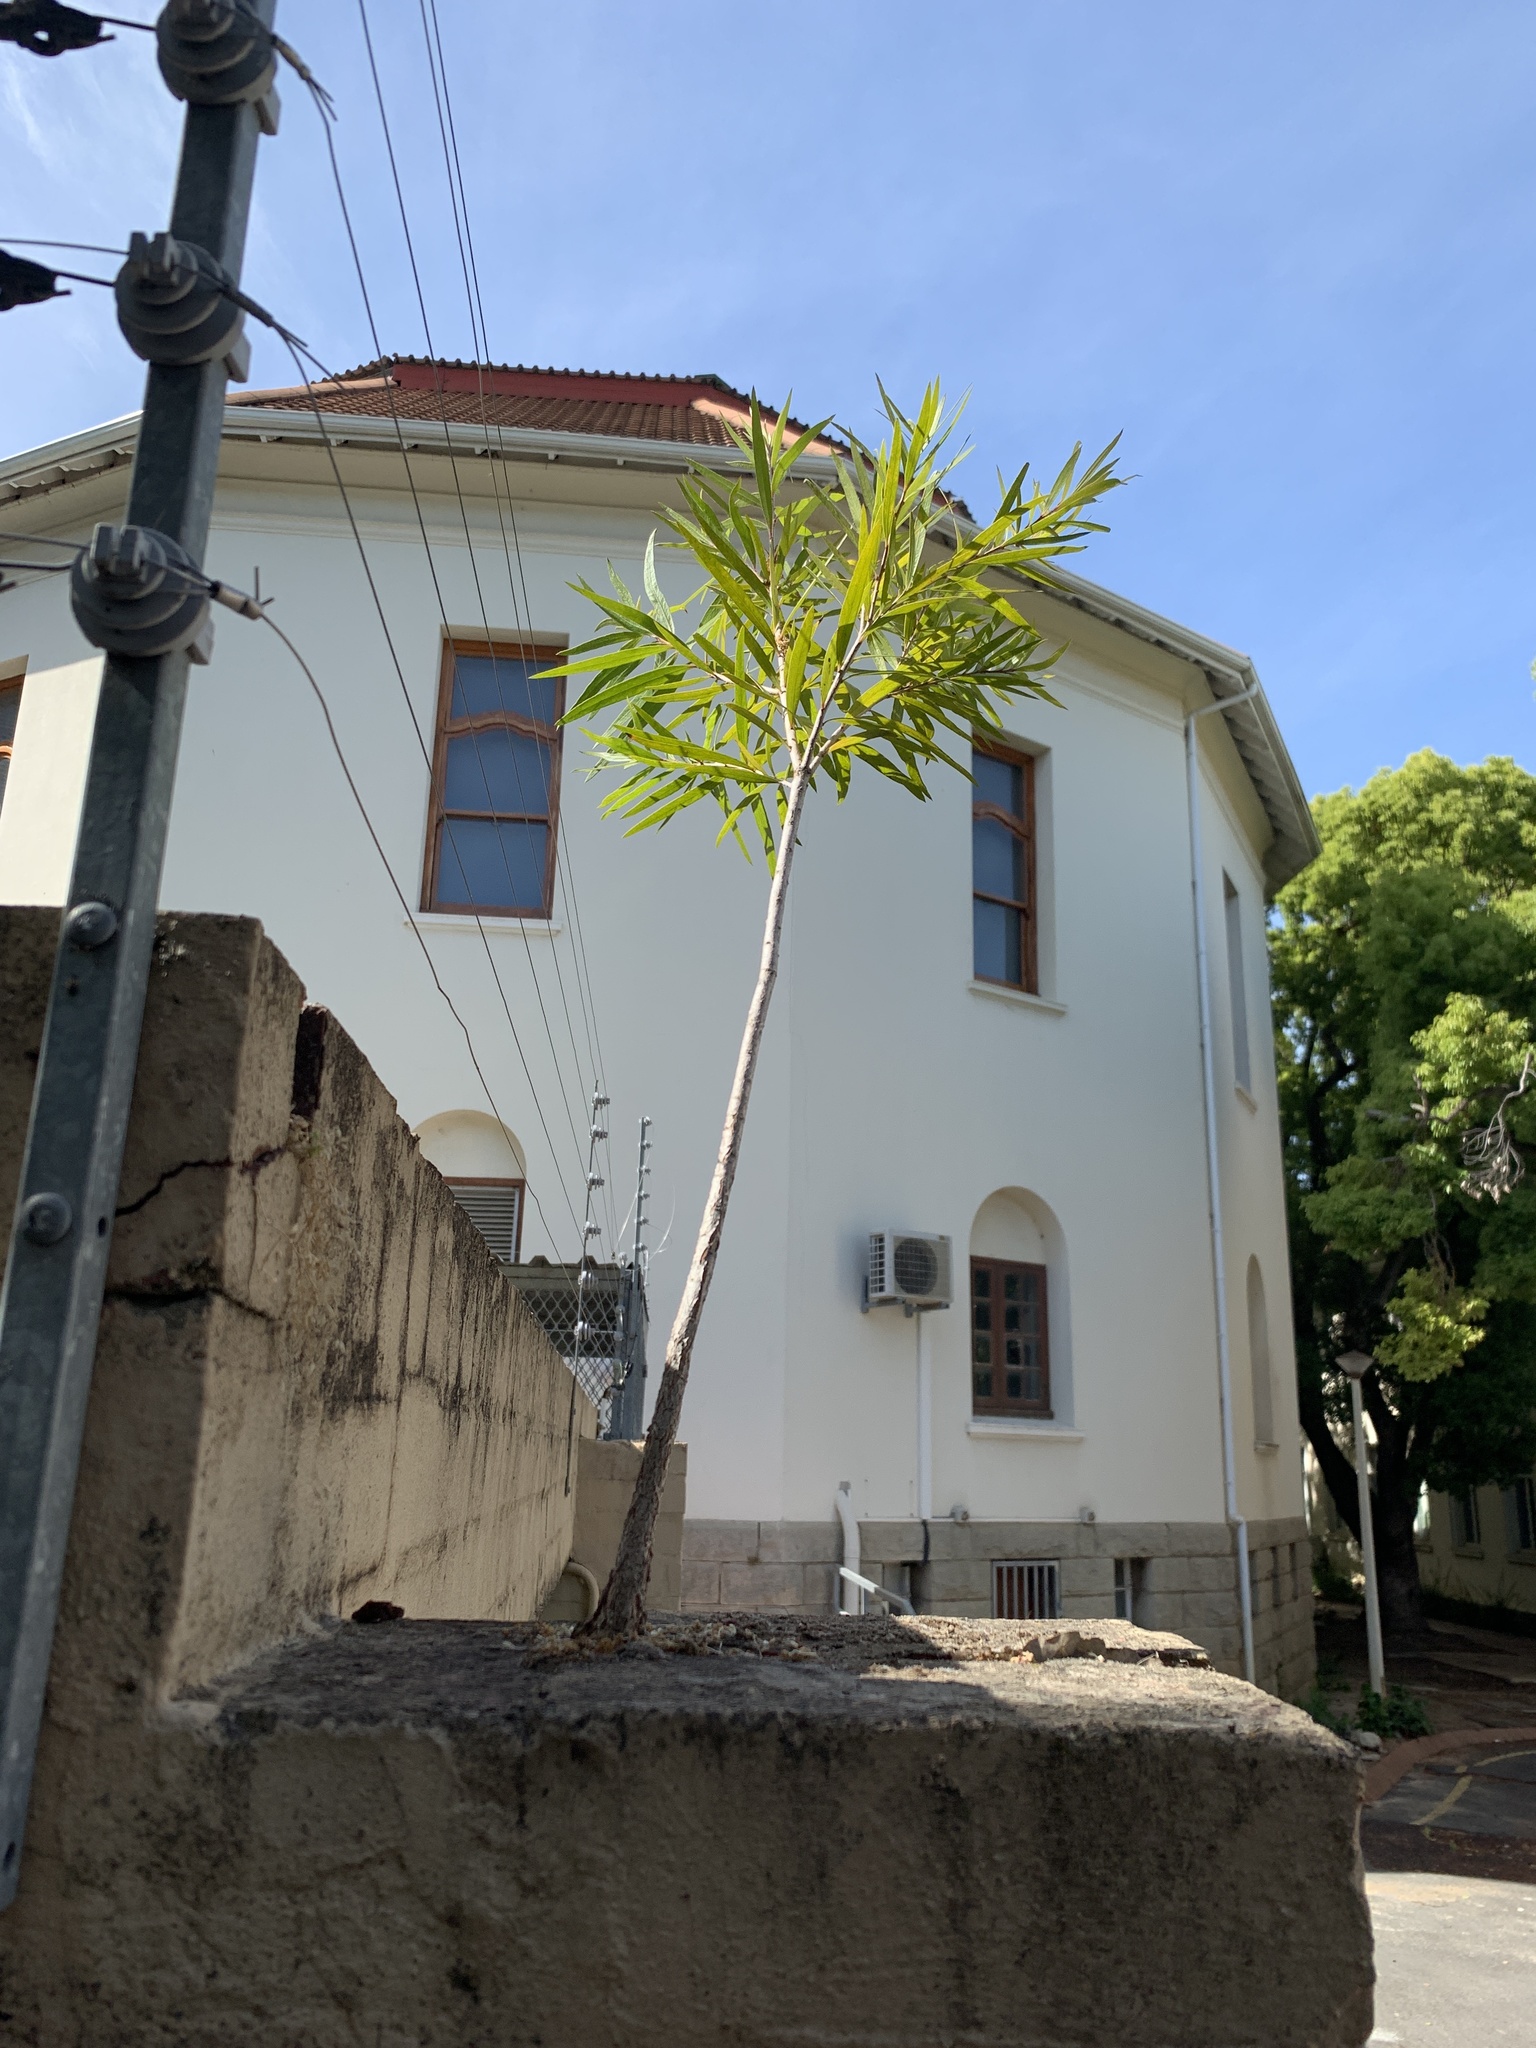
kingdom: Plantae
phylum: Tracheophyta
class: Magnoliopsida
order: Myrtales
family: Myrtaceae
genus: Callistemon
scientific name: Callistemon viminalis
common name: Drooping bottlebrush
